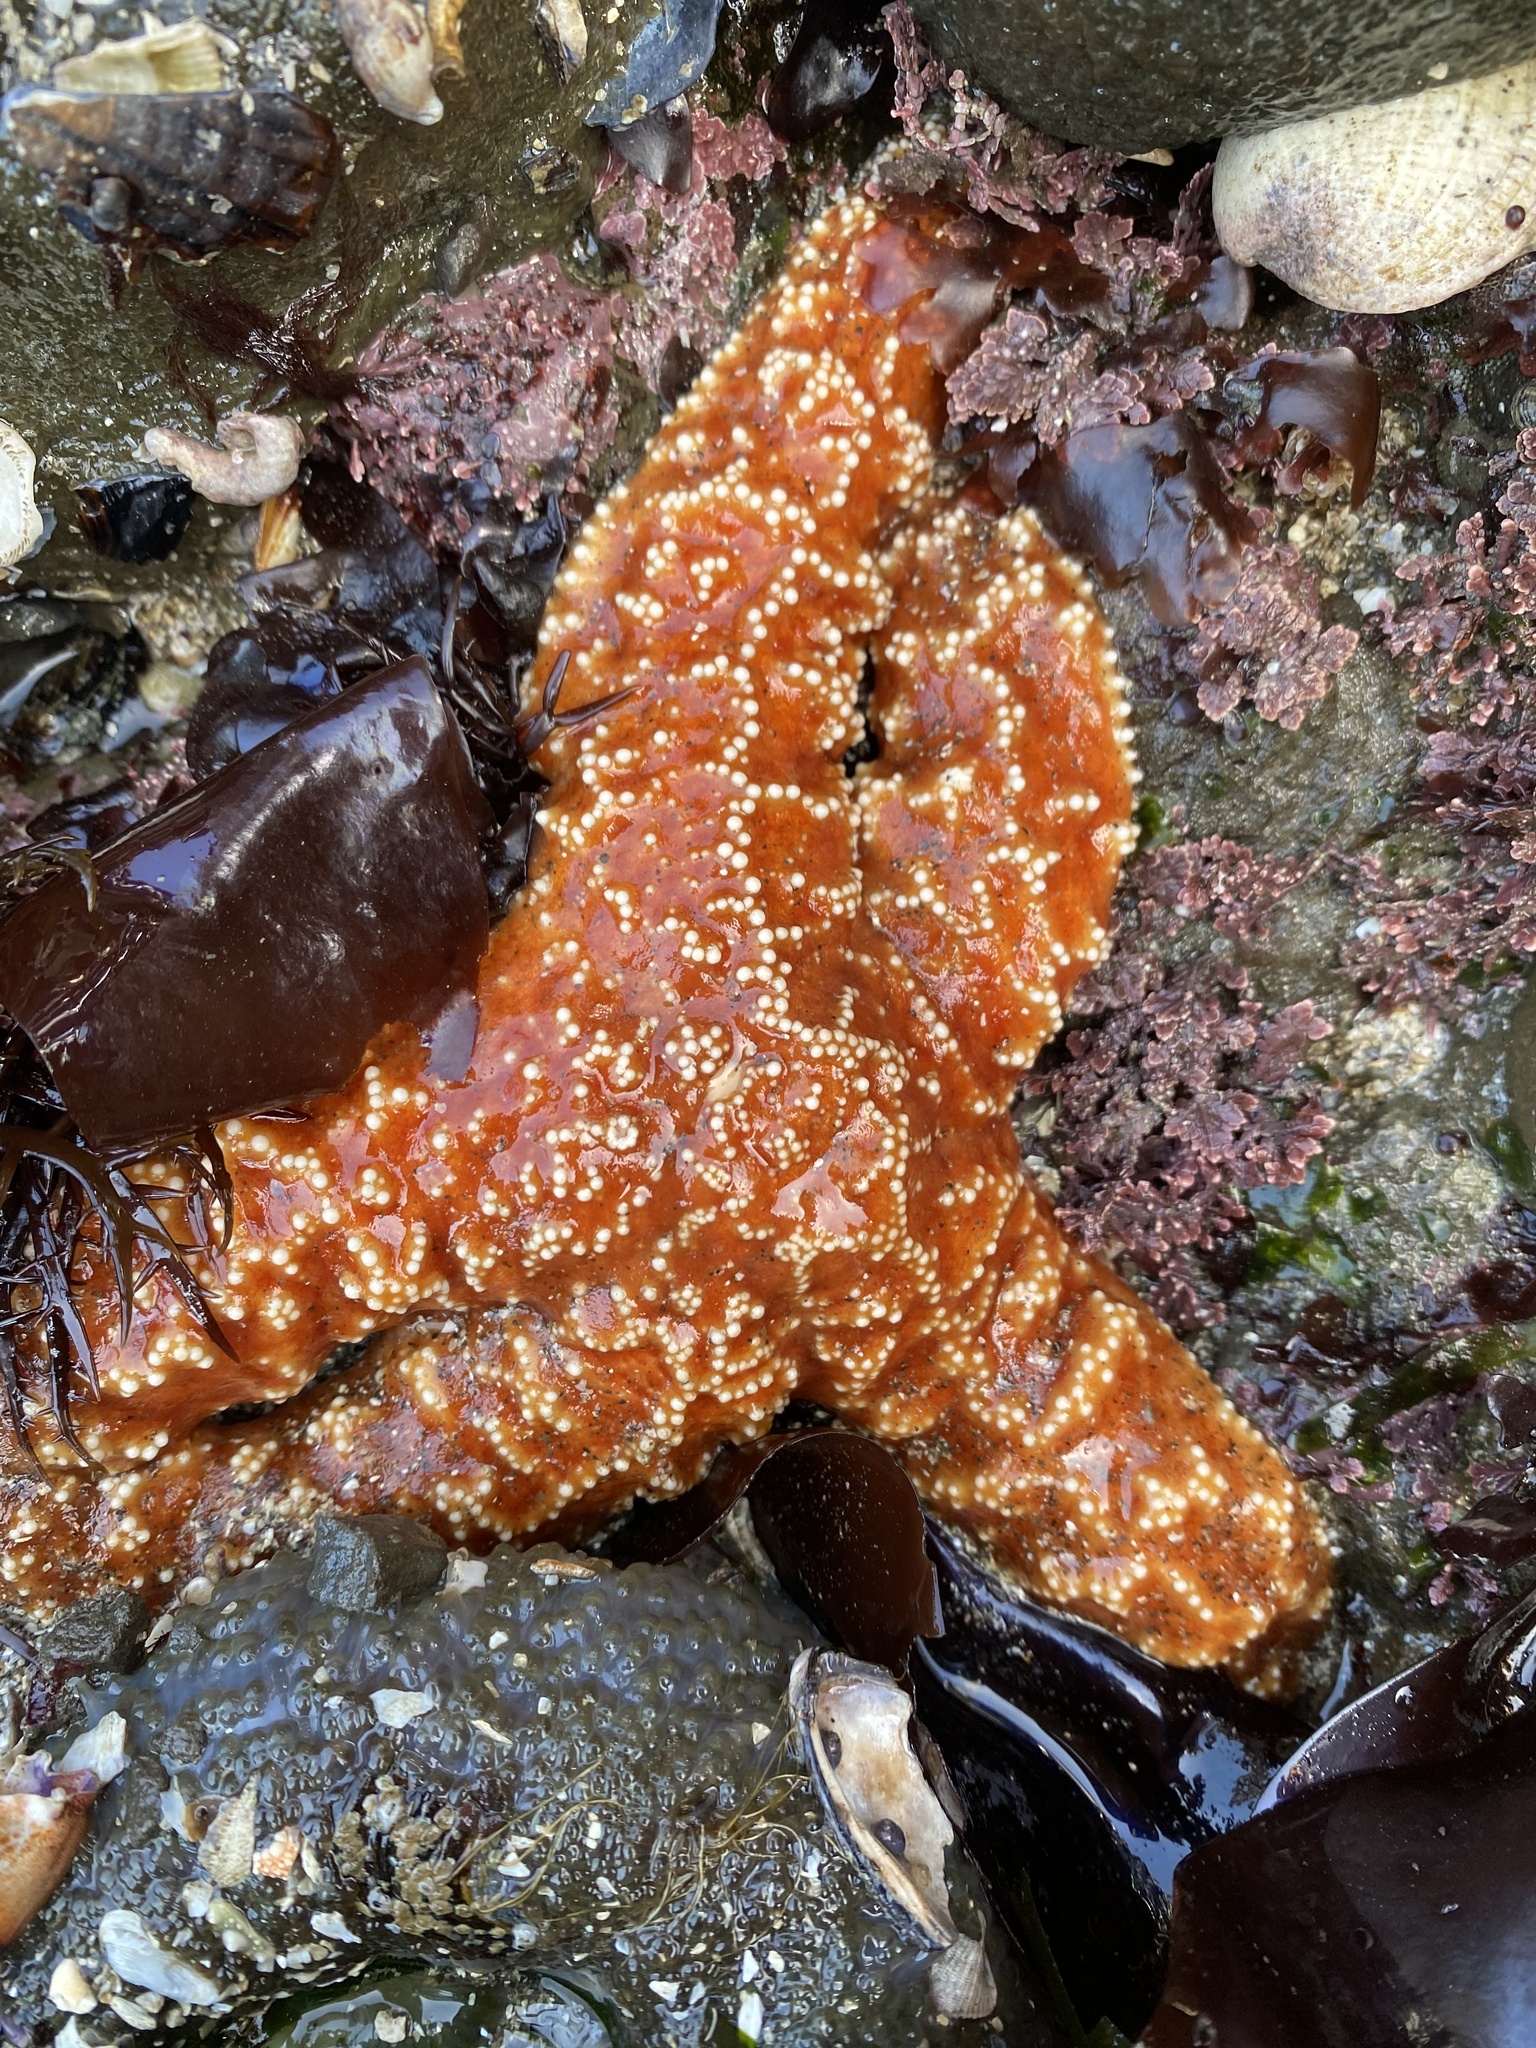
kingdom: Animalia
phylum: Echinodermata
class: Asteroidea
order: Forcipulatida
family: Asteriidae
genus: Pisaster
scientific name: Pisaster ochraceus
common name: Ochre stars
